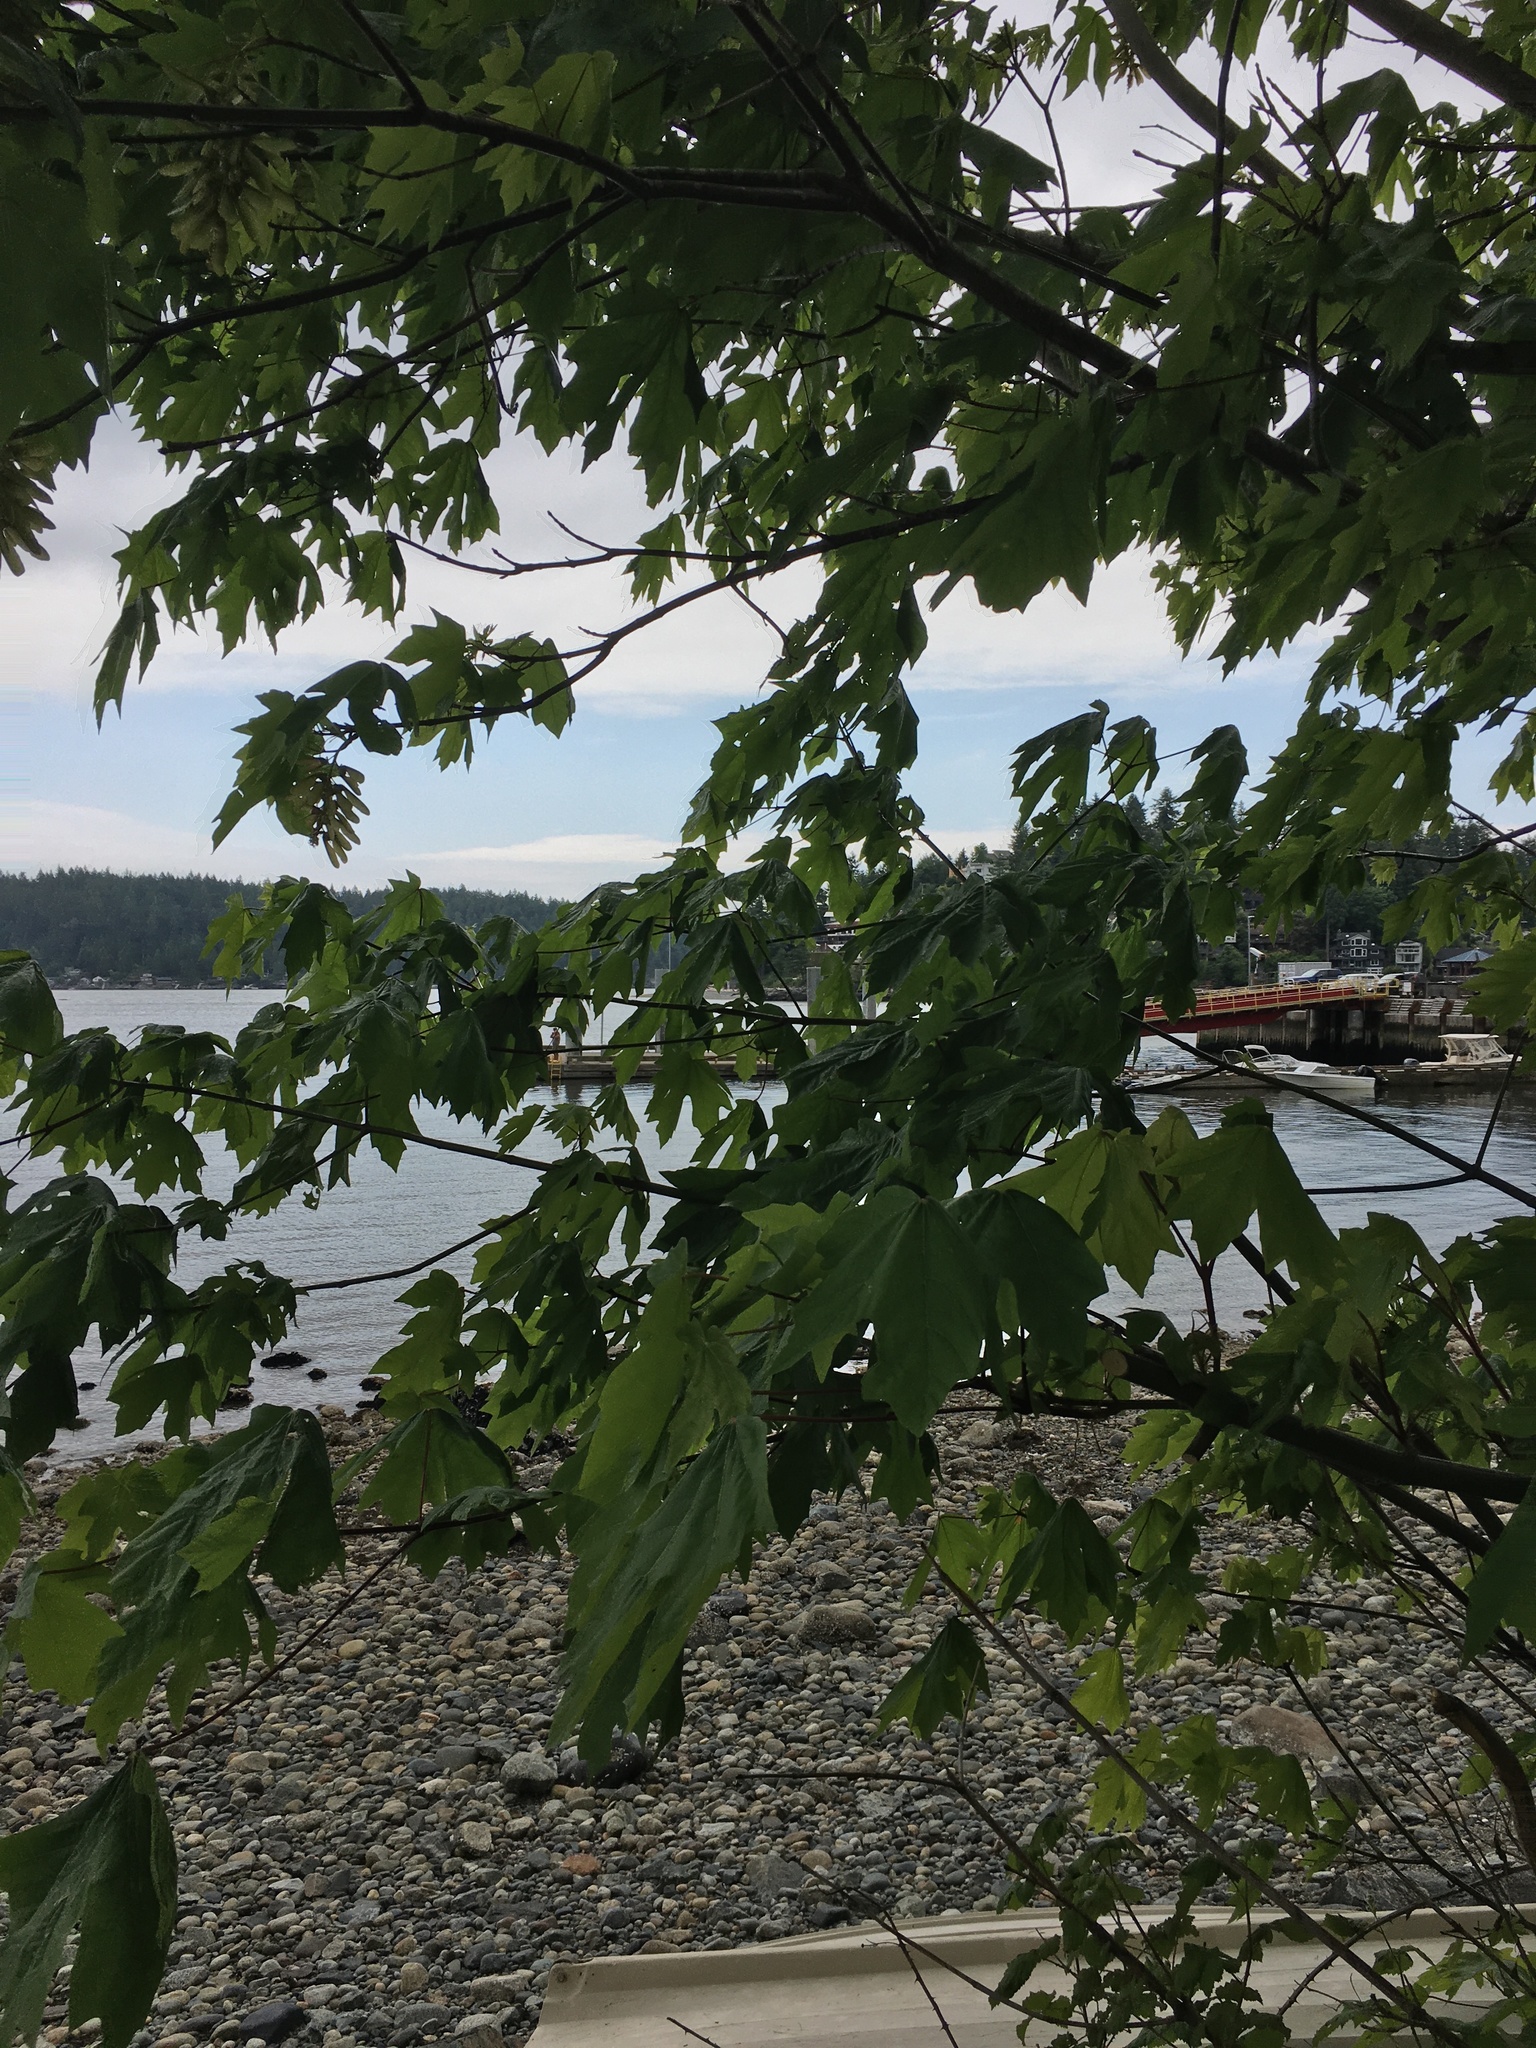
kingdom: Plantae
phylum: Tracheophyta
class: Magnoliopsida
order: Sapindales
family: Sapindaceae
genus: Acer
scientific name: Acer macrophyllum
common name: Oregon maple
